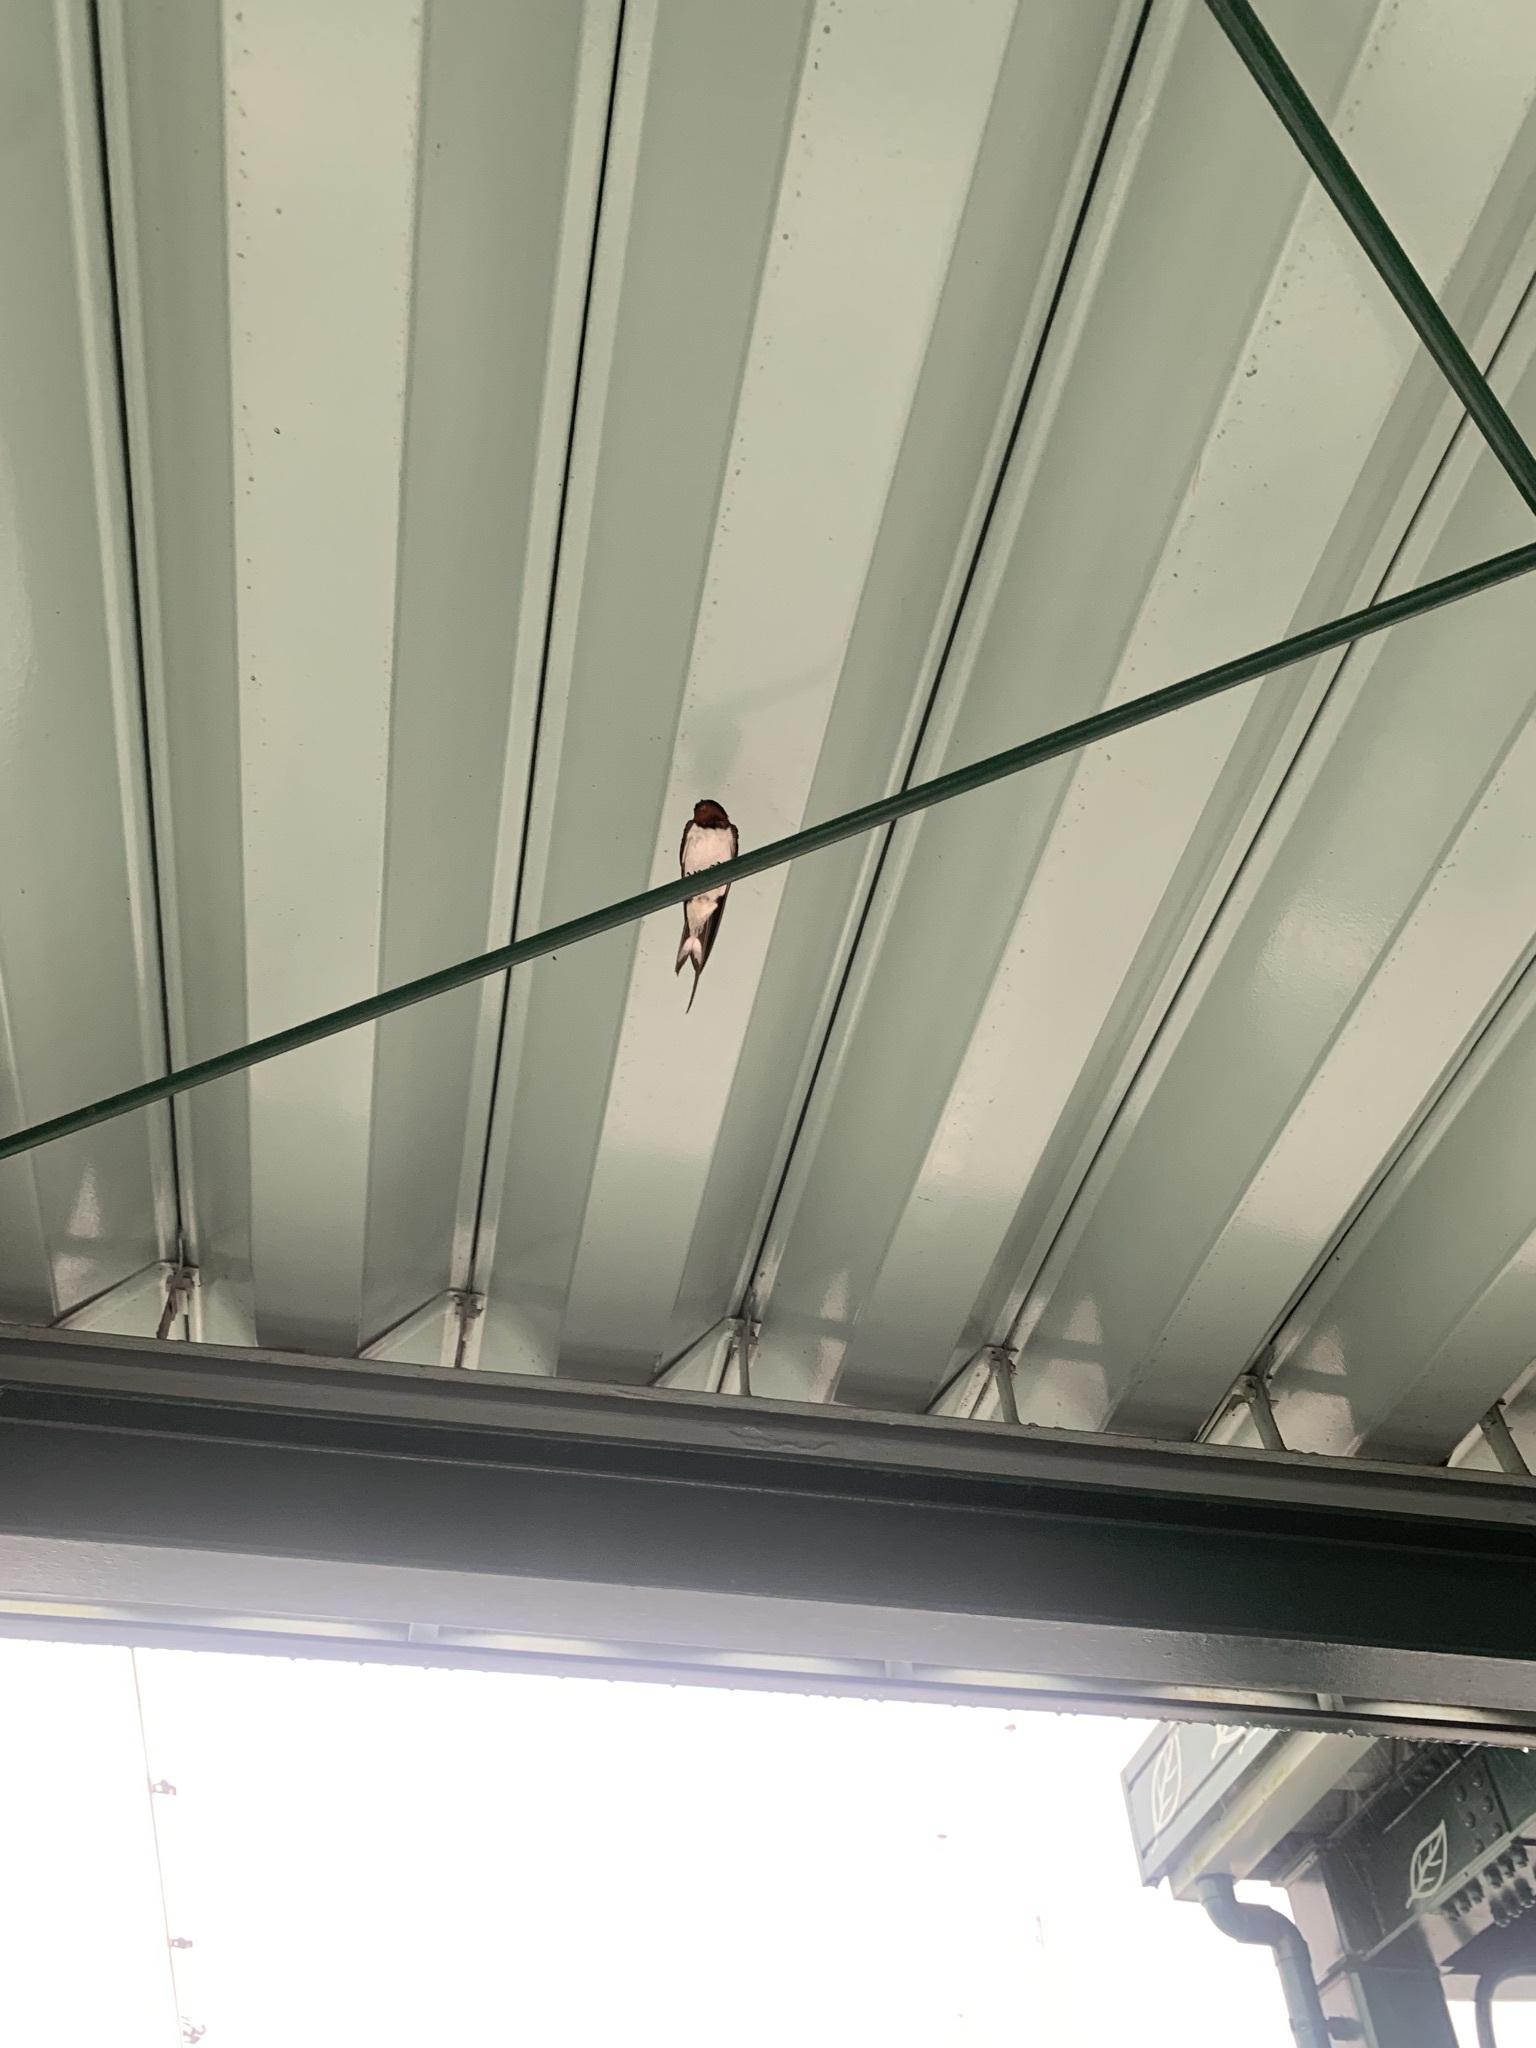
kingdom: Animalia
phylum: Chordata
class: Aves
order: Passeriformes
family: Hirundinidae
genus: Hirundo
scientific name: Hirundo rustica
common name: Barn swallow
